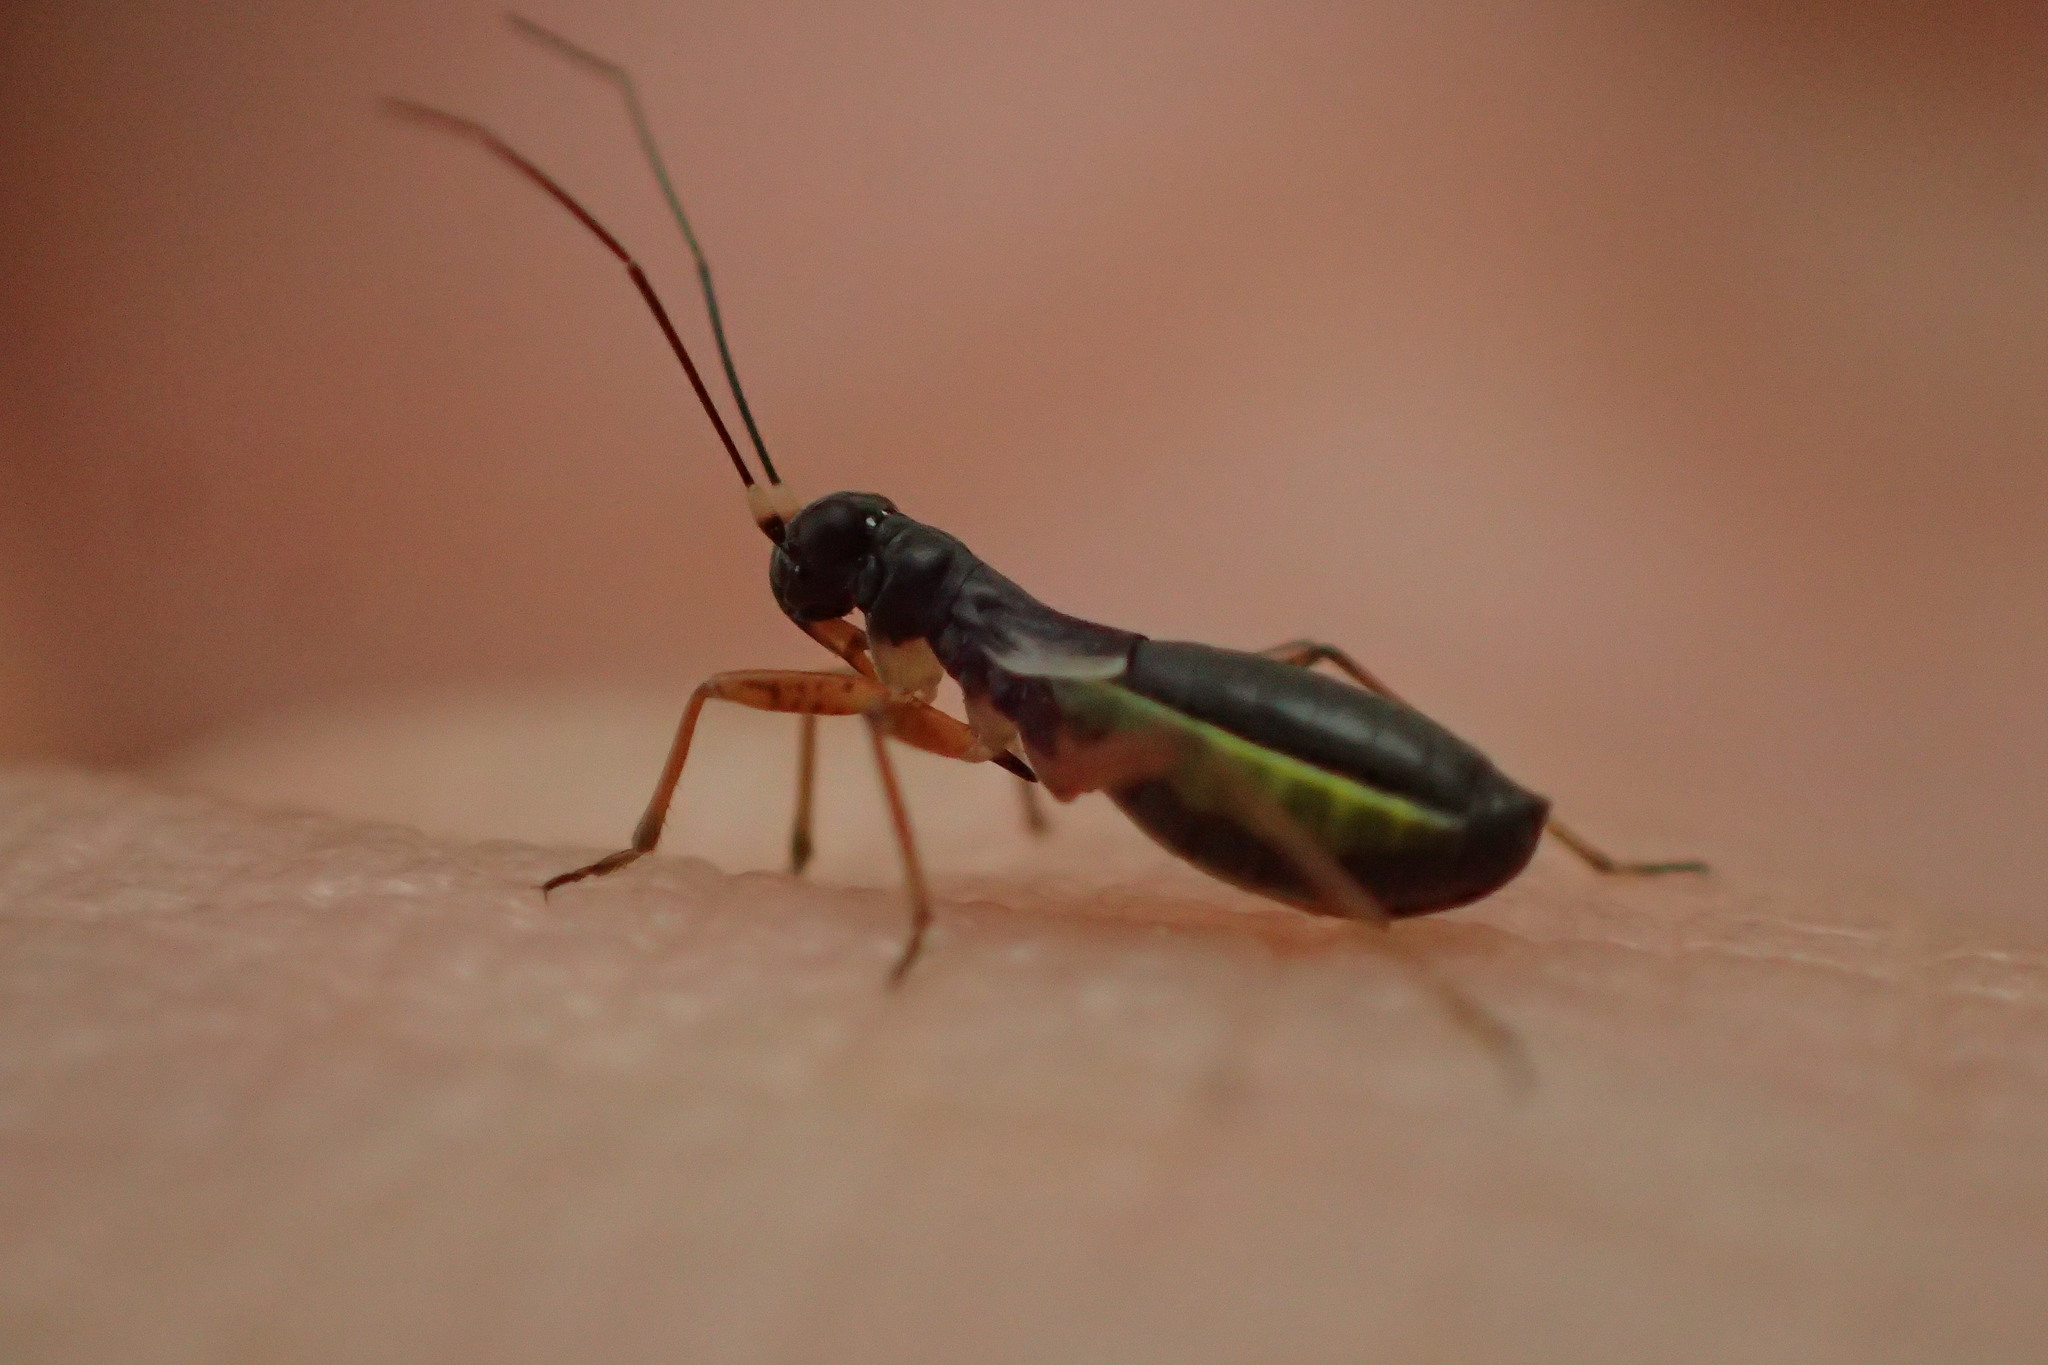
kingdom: Animalia
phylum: Arthropoda
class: Insecta
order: Hemiptera
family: Miridae
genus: Pithanus
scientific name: Pithanus maerkelii
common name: Plant bug
